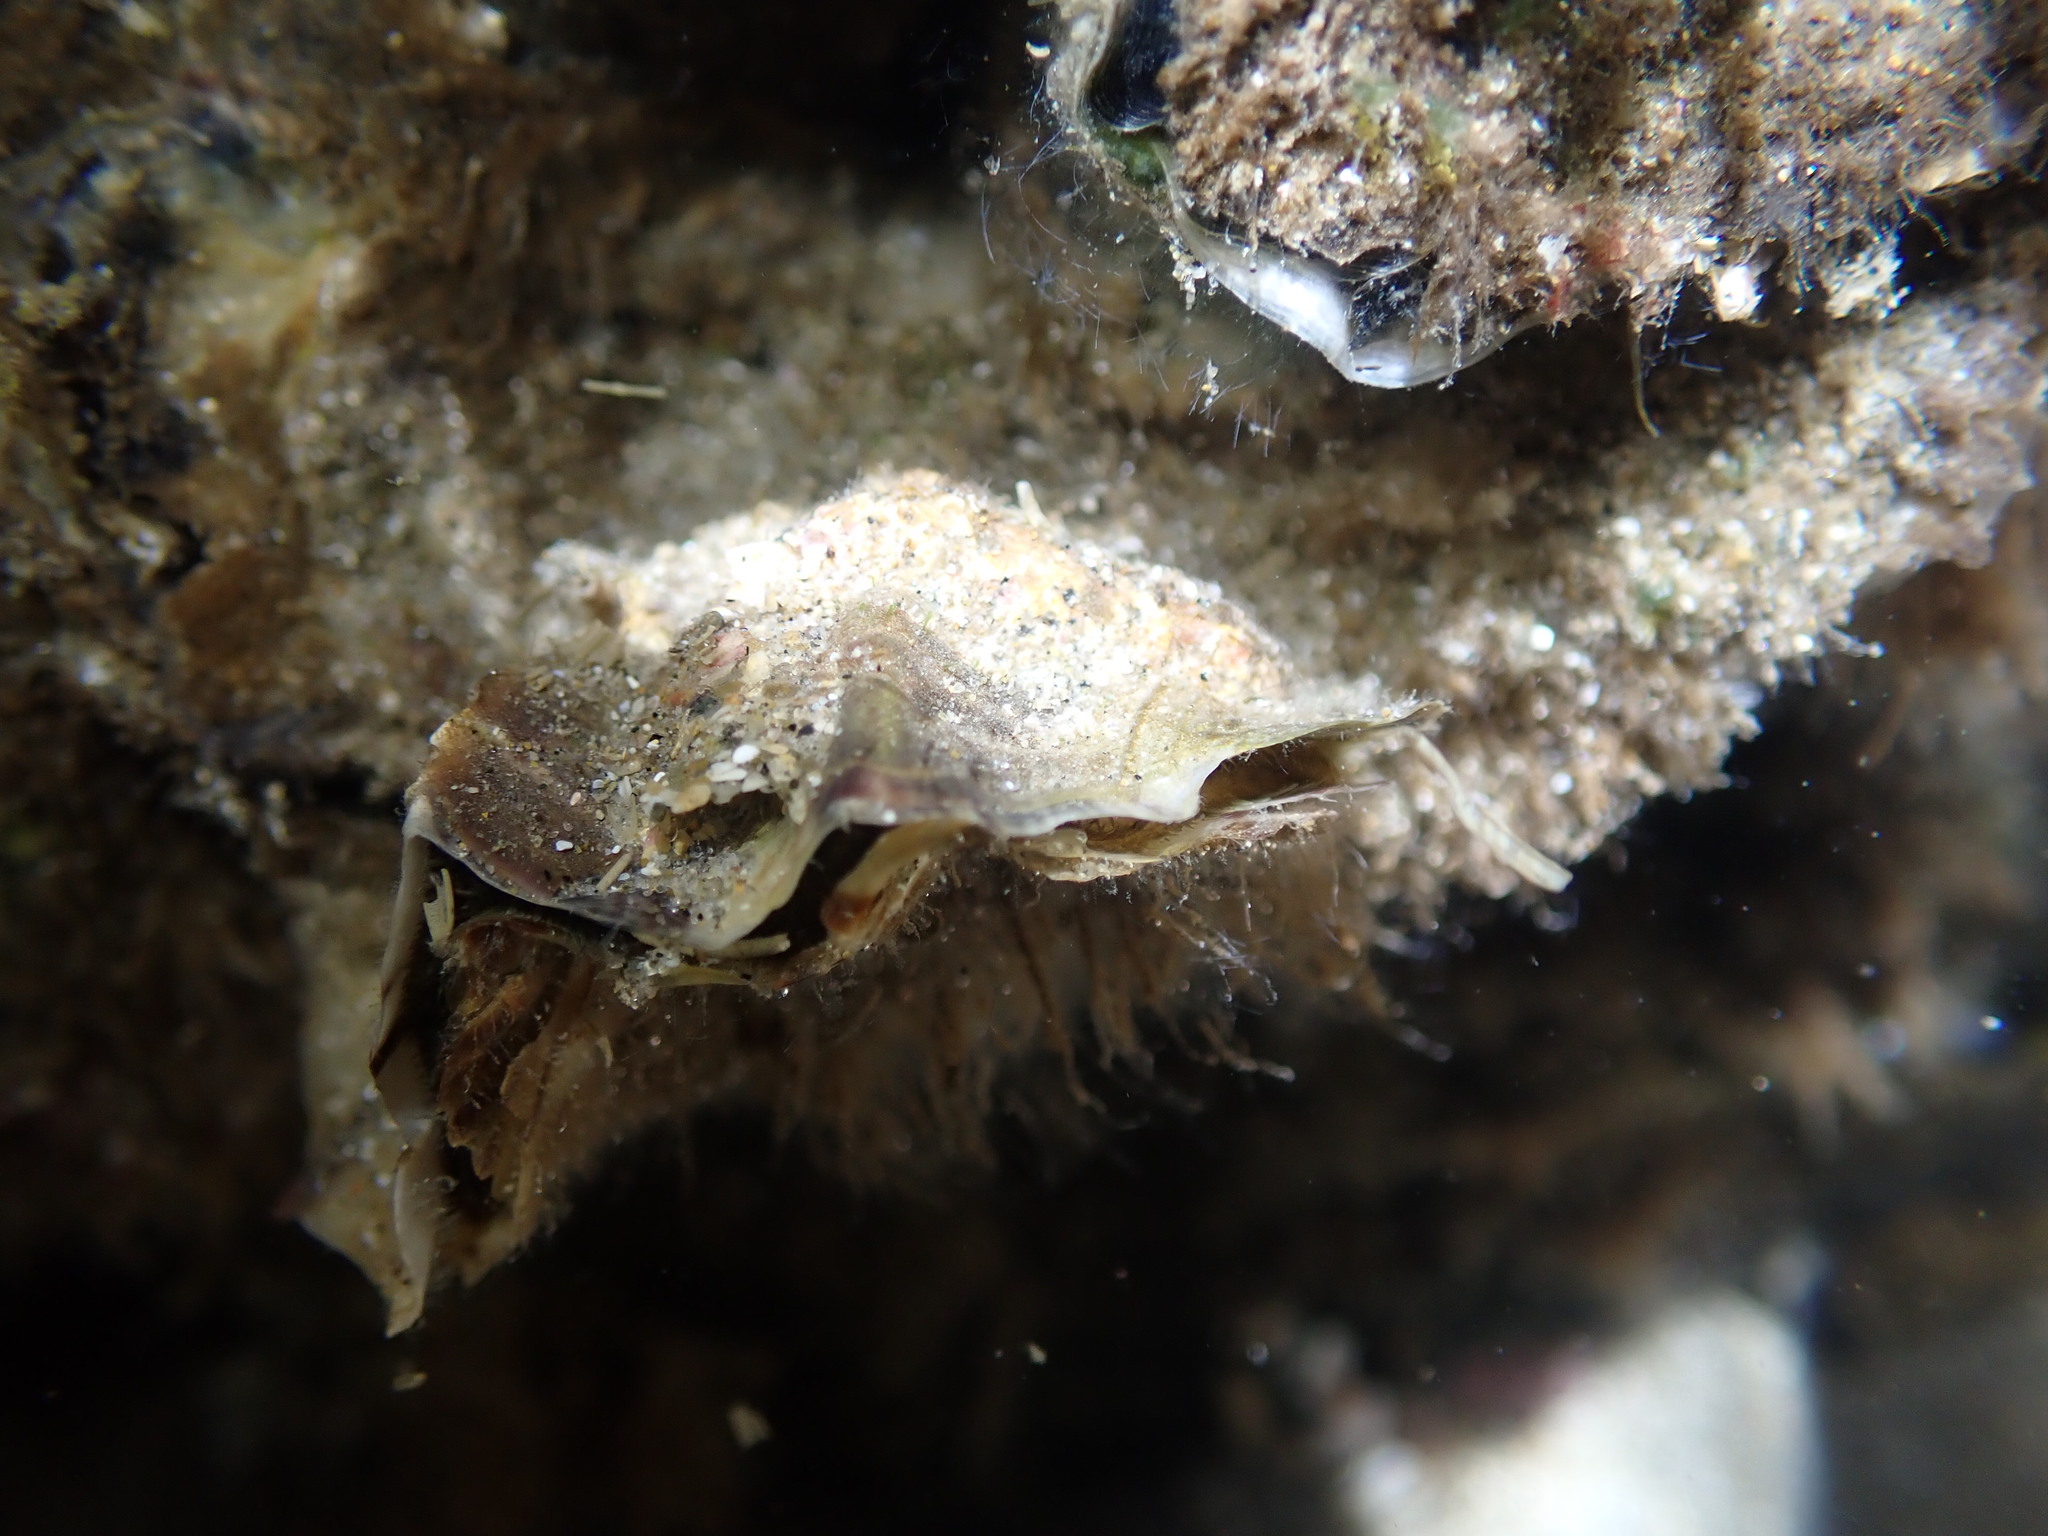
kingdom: Animalia
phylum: Mollusca
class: Bivalvia
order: Ostreida
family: Ostreidae
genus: Magallana
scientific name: Magallana gigas
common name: Pacific oyster
